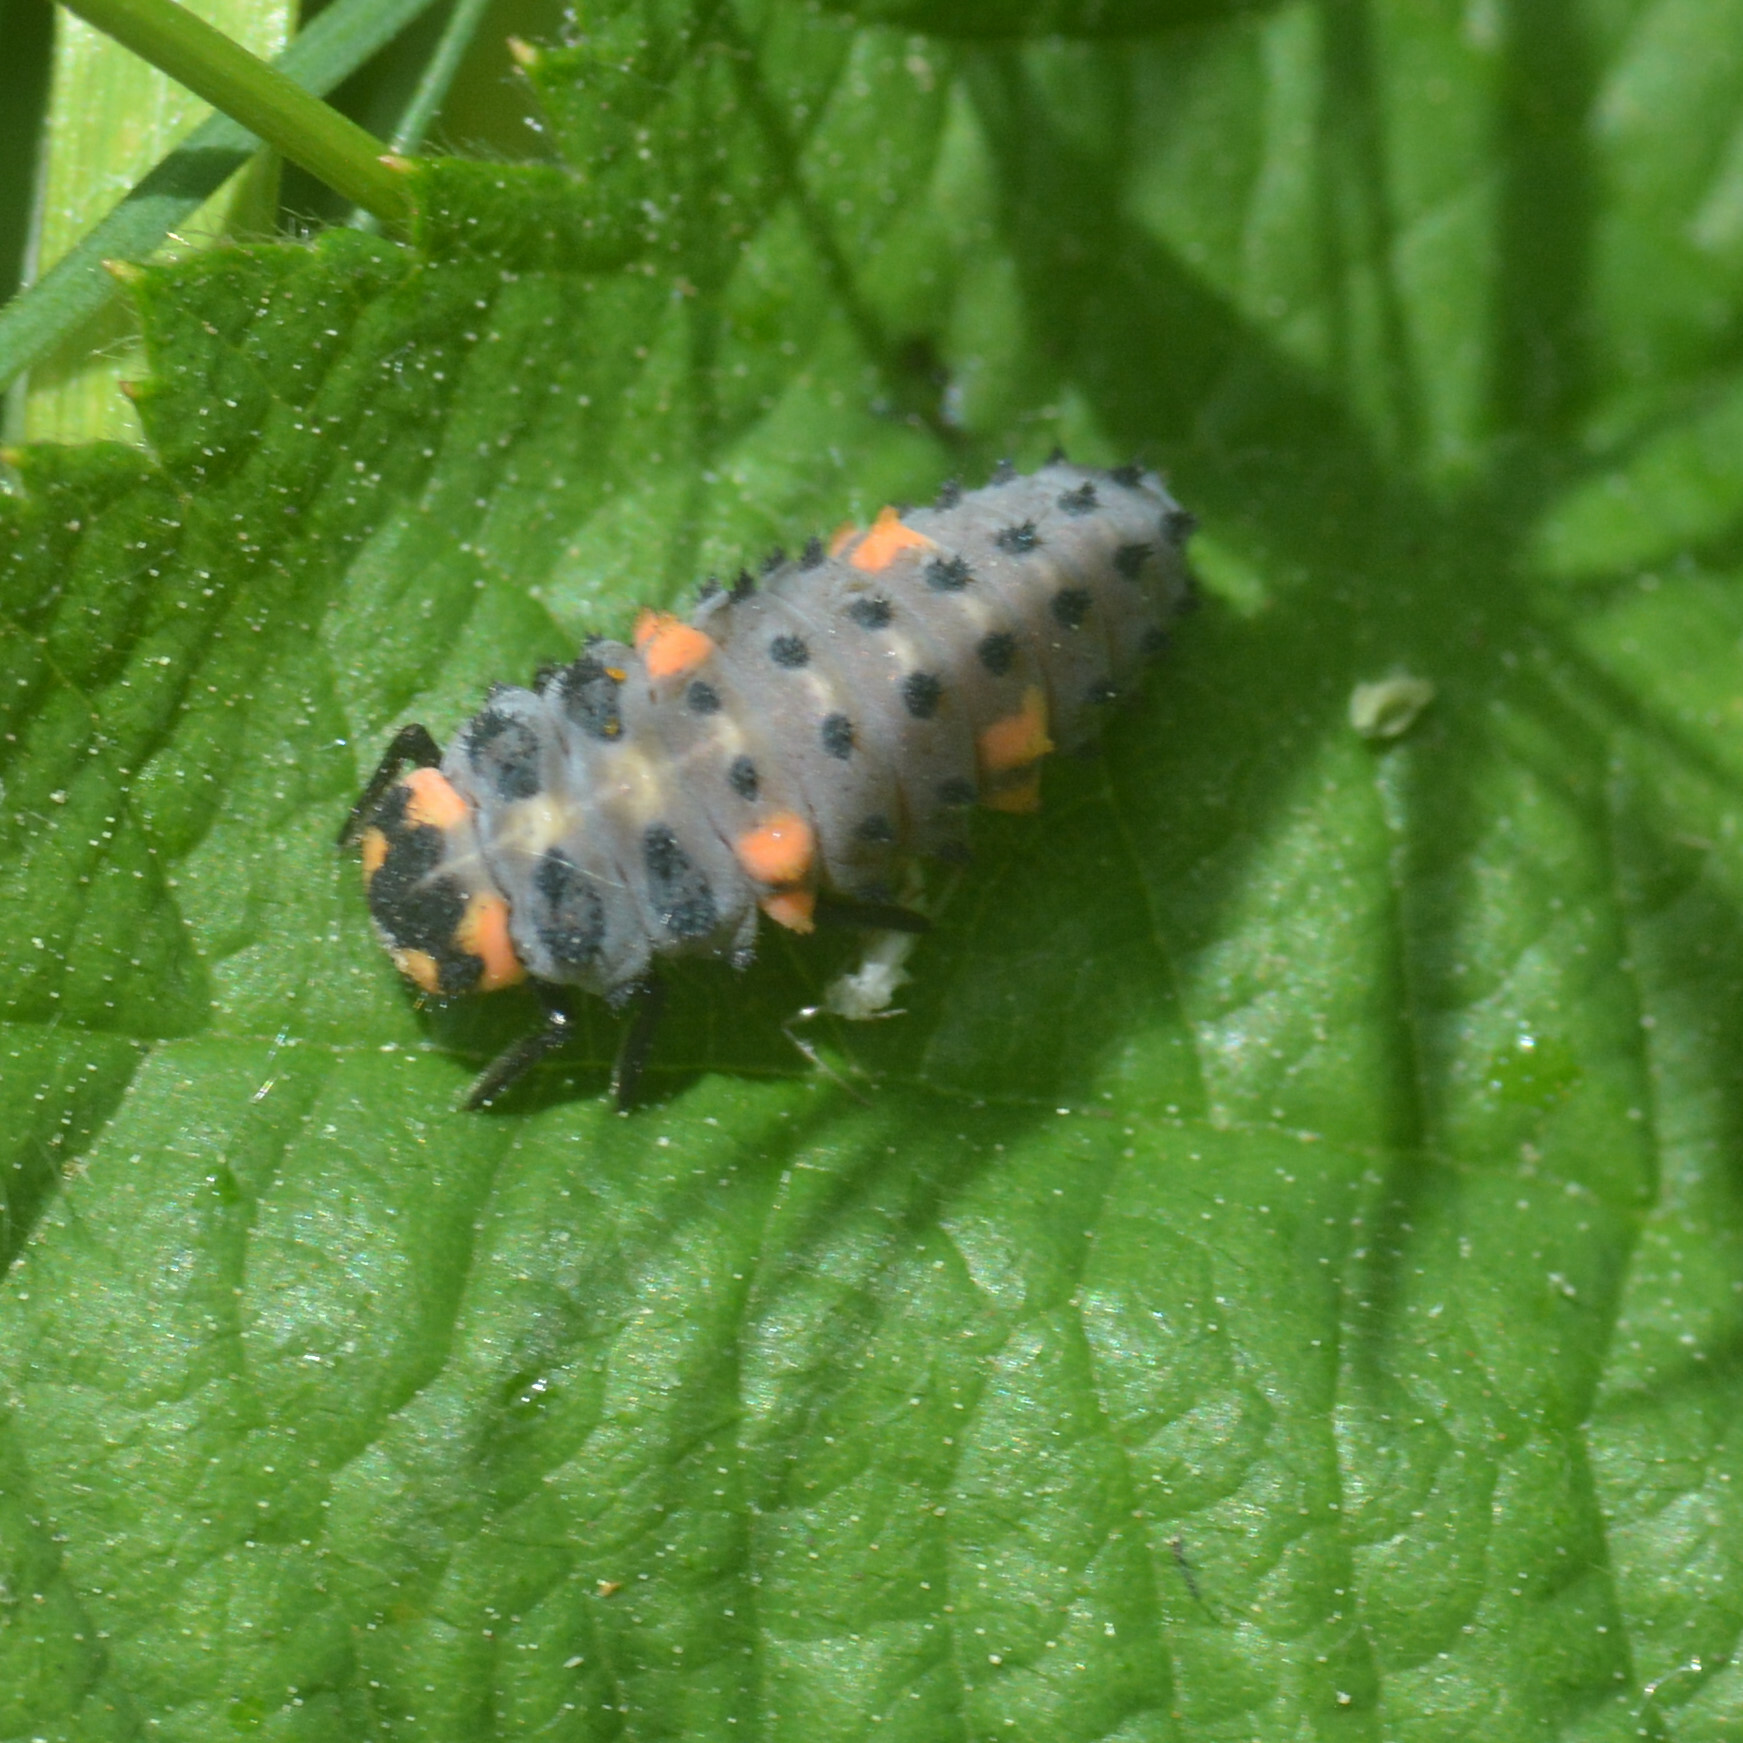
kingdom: Animalia
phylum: Arthropoda
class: Insecta
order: Coleoptera
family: Coccinellidae
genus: Coccinella
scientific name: Coccinella septempunctata
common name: Sevenspotted lady beetle
